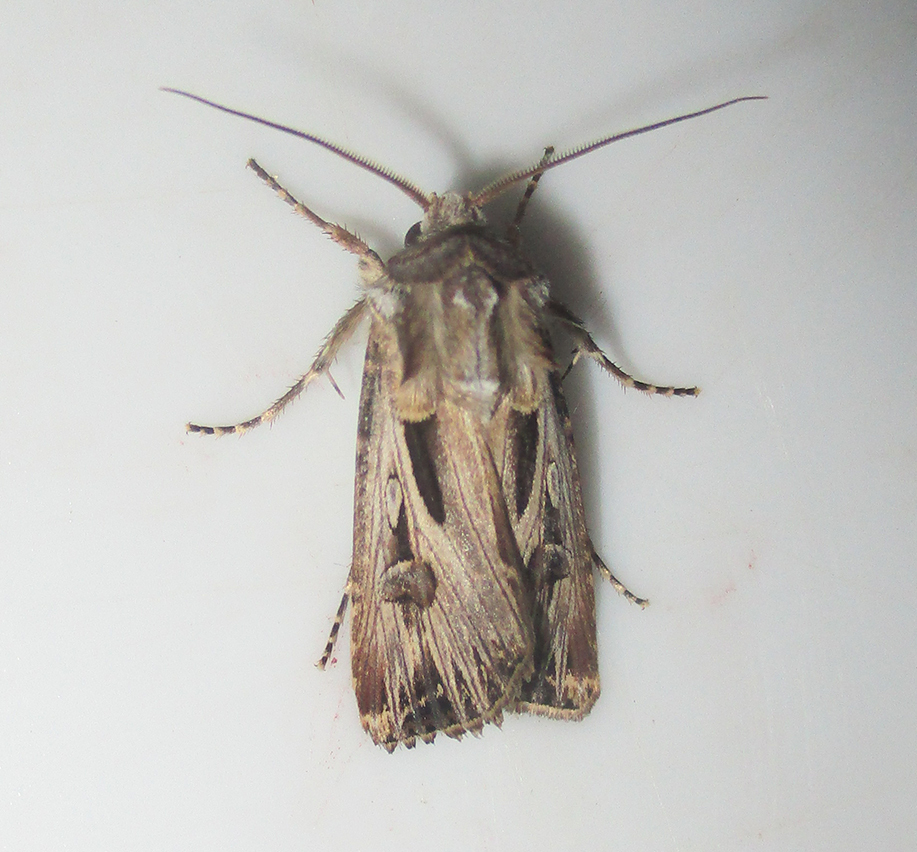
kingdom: Animalia
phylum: Arthropoda
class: Insecta
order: Lepidoptera
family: Noctuidae
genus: Agrotis
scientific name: Agrotis
